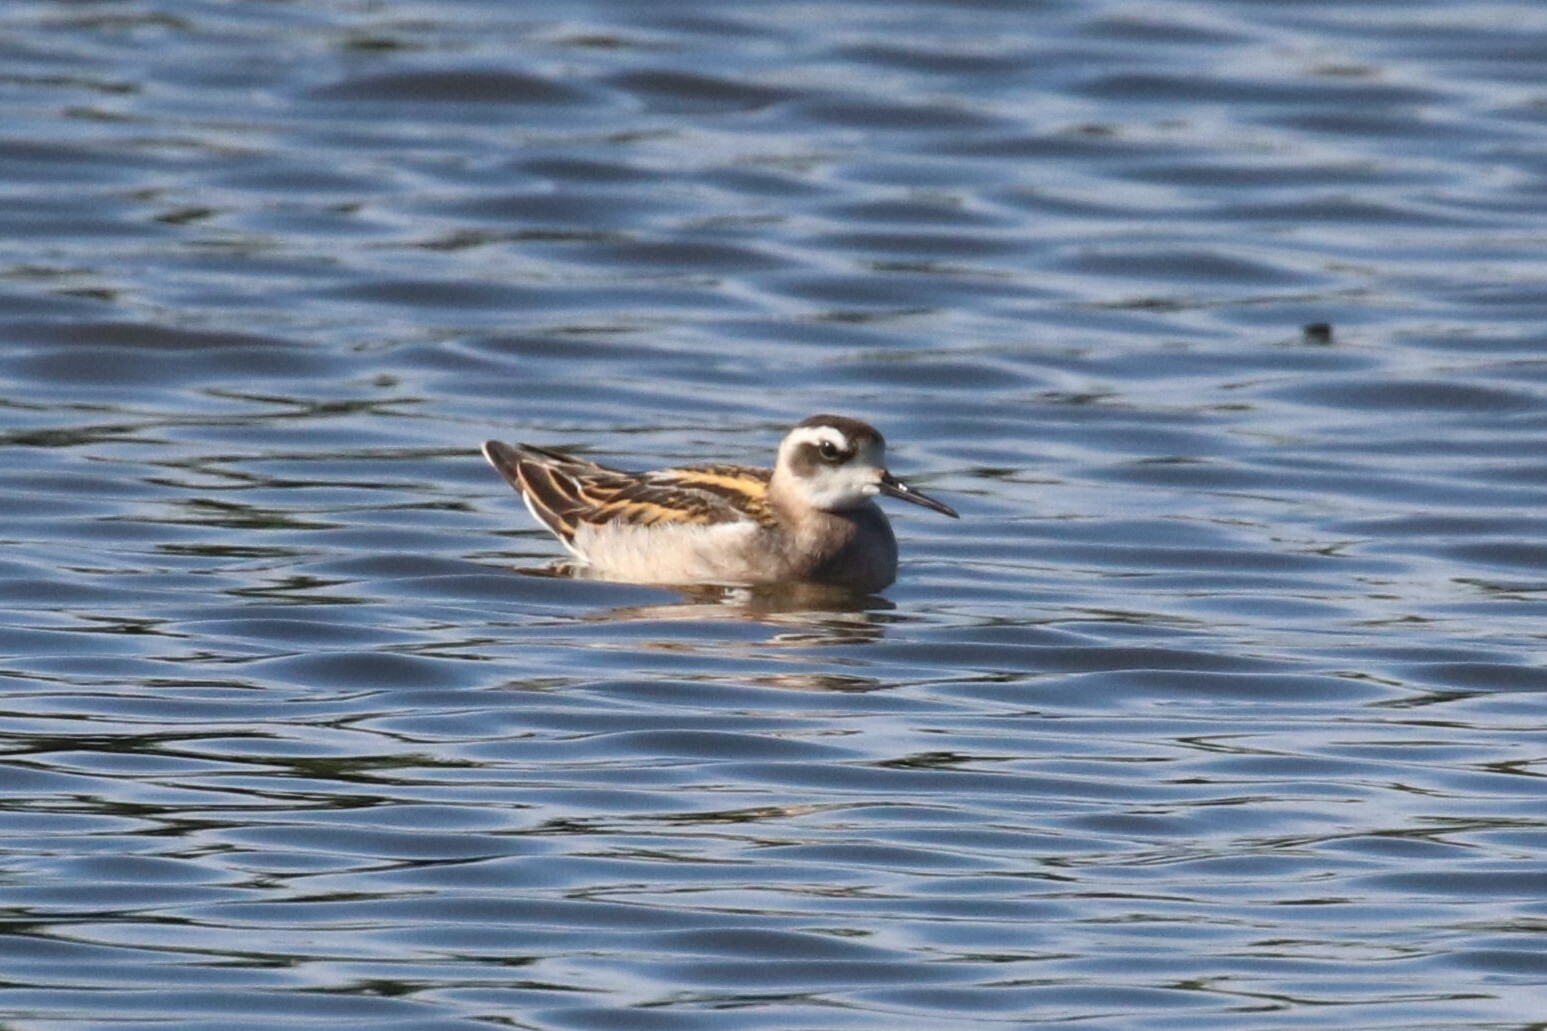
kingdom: Animalia
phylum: Chordata
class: Aves
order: Charadriiformes
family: Scolopacidae
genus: Phalaropus
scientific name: Phalaropus lobatus
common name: Red-necked phalarope
